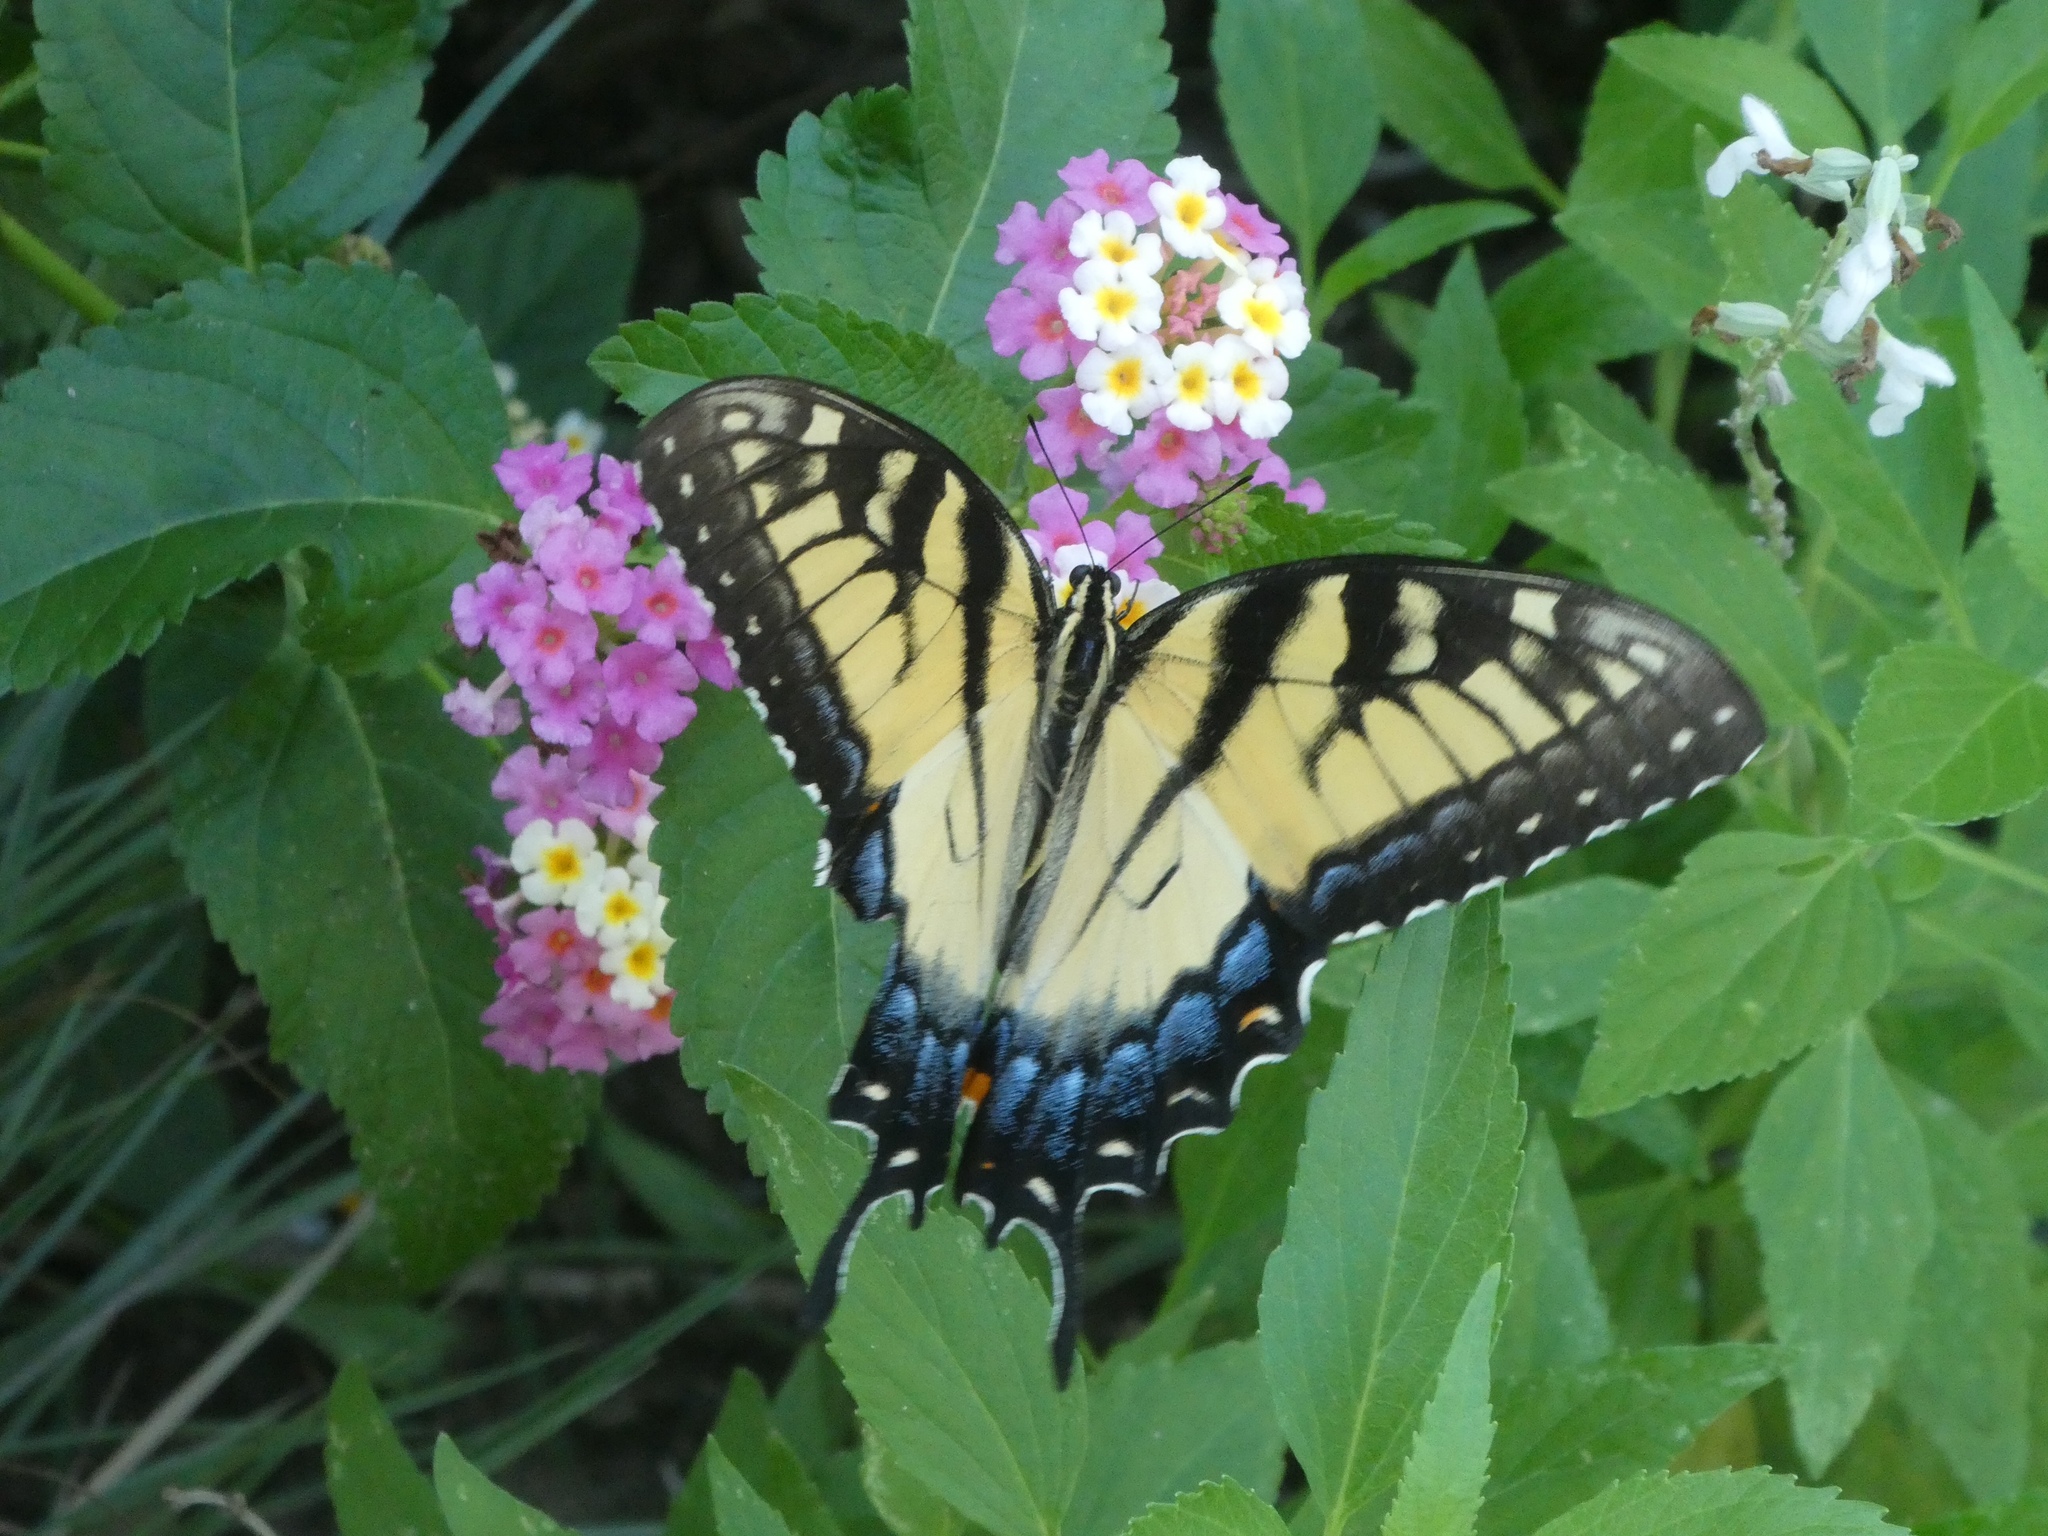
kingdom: Animalia
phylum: Arthropoda
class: Insecta
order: Lepidoptera
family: Papilionidae
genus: Papilio
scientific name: Papilio glaucus
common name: Tiger swallowtail
